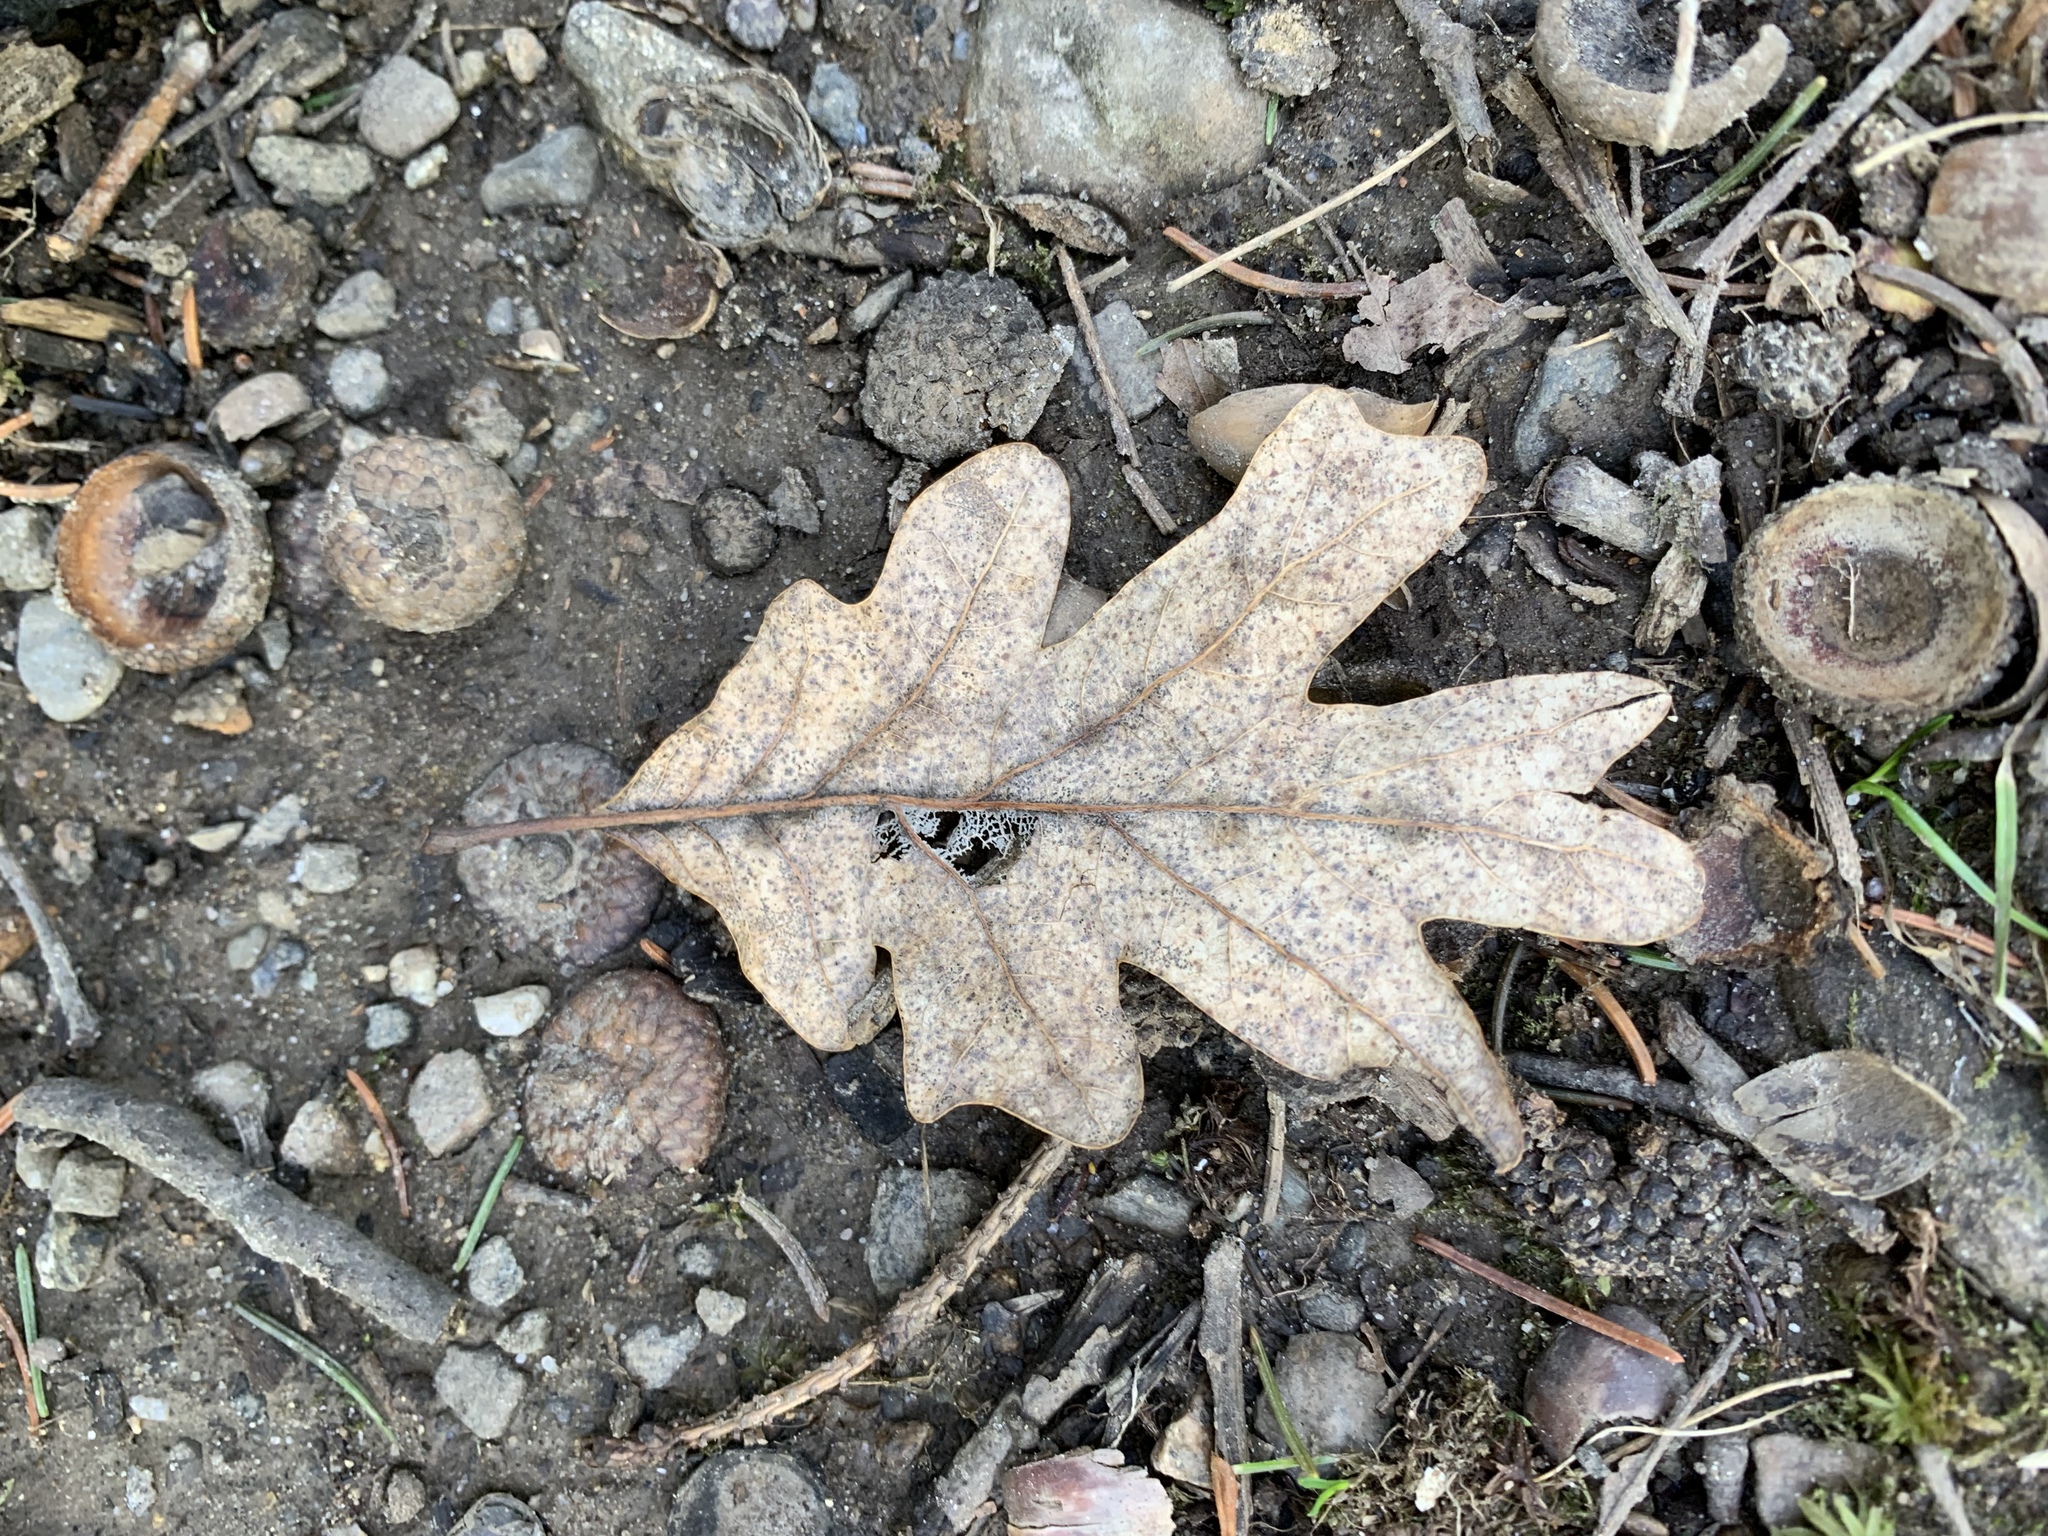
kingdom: Plantae
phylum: Tracheophyta
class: Magnoliopsida
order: Fagales
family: Fagaceae
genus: Quercus
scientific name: Quercus alba
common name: White oak
